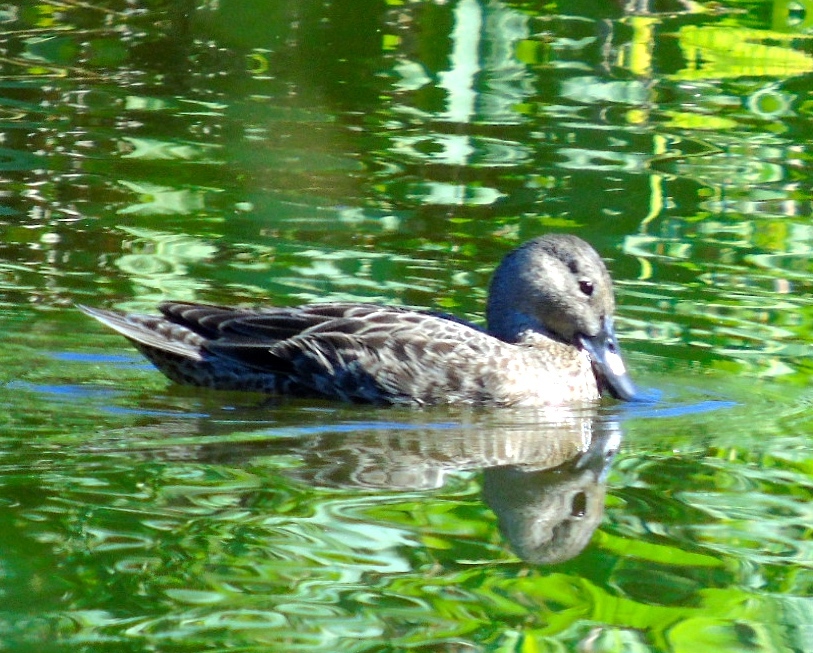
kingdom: Animalia
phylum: Chordata
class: Aves
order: Anseriformes
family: Anatidae
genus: Spatula
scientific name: Spatula cyanoptera
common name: Cinnamon teal
